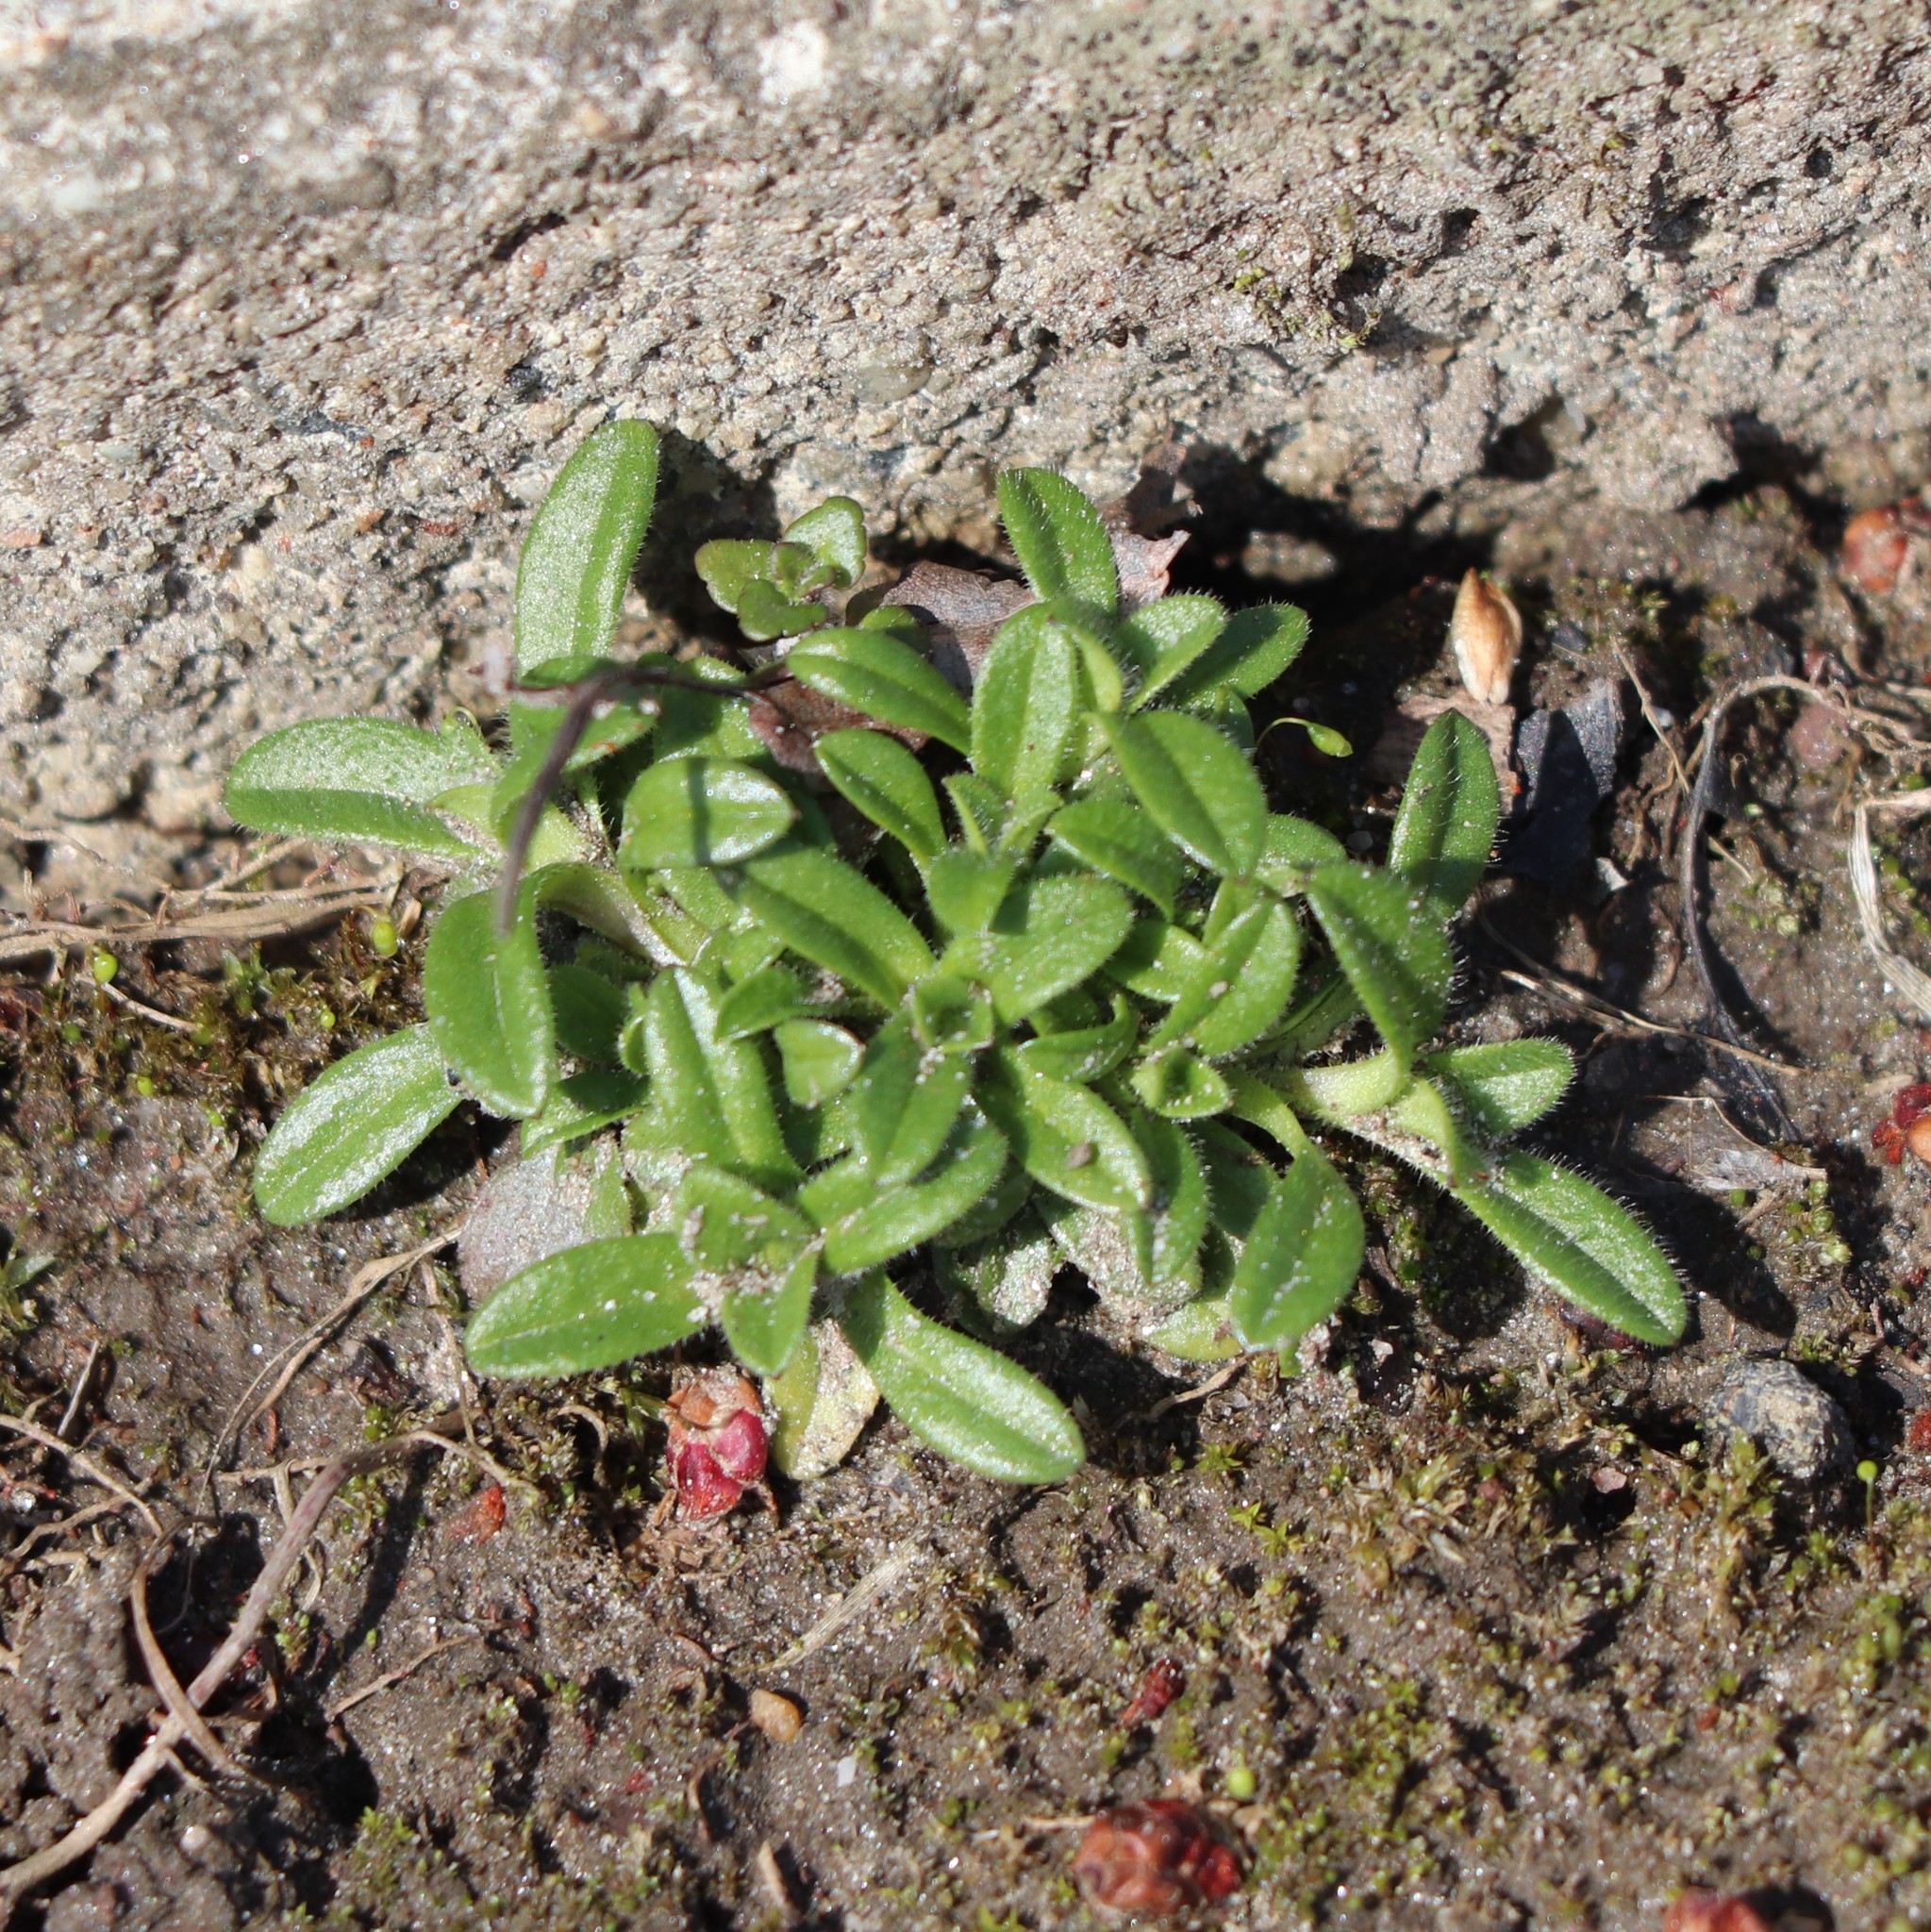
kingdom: Plantae
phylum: Tracheophyta
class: Magnoliopsida
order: Caryophyllales
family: Caryophyllaceae
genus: Cerastium
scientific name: Cerastium
